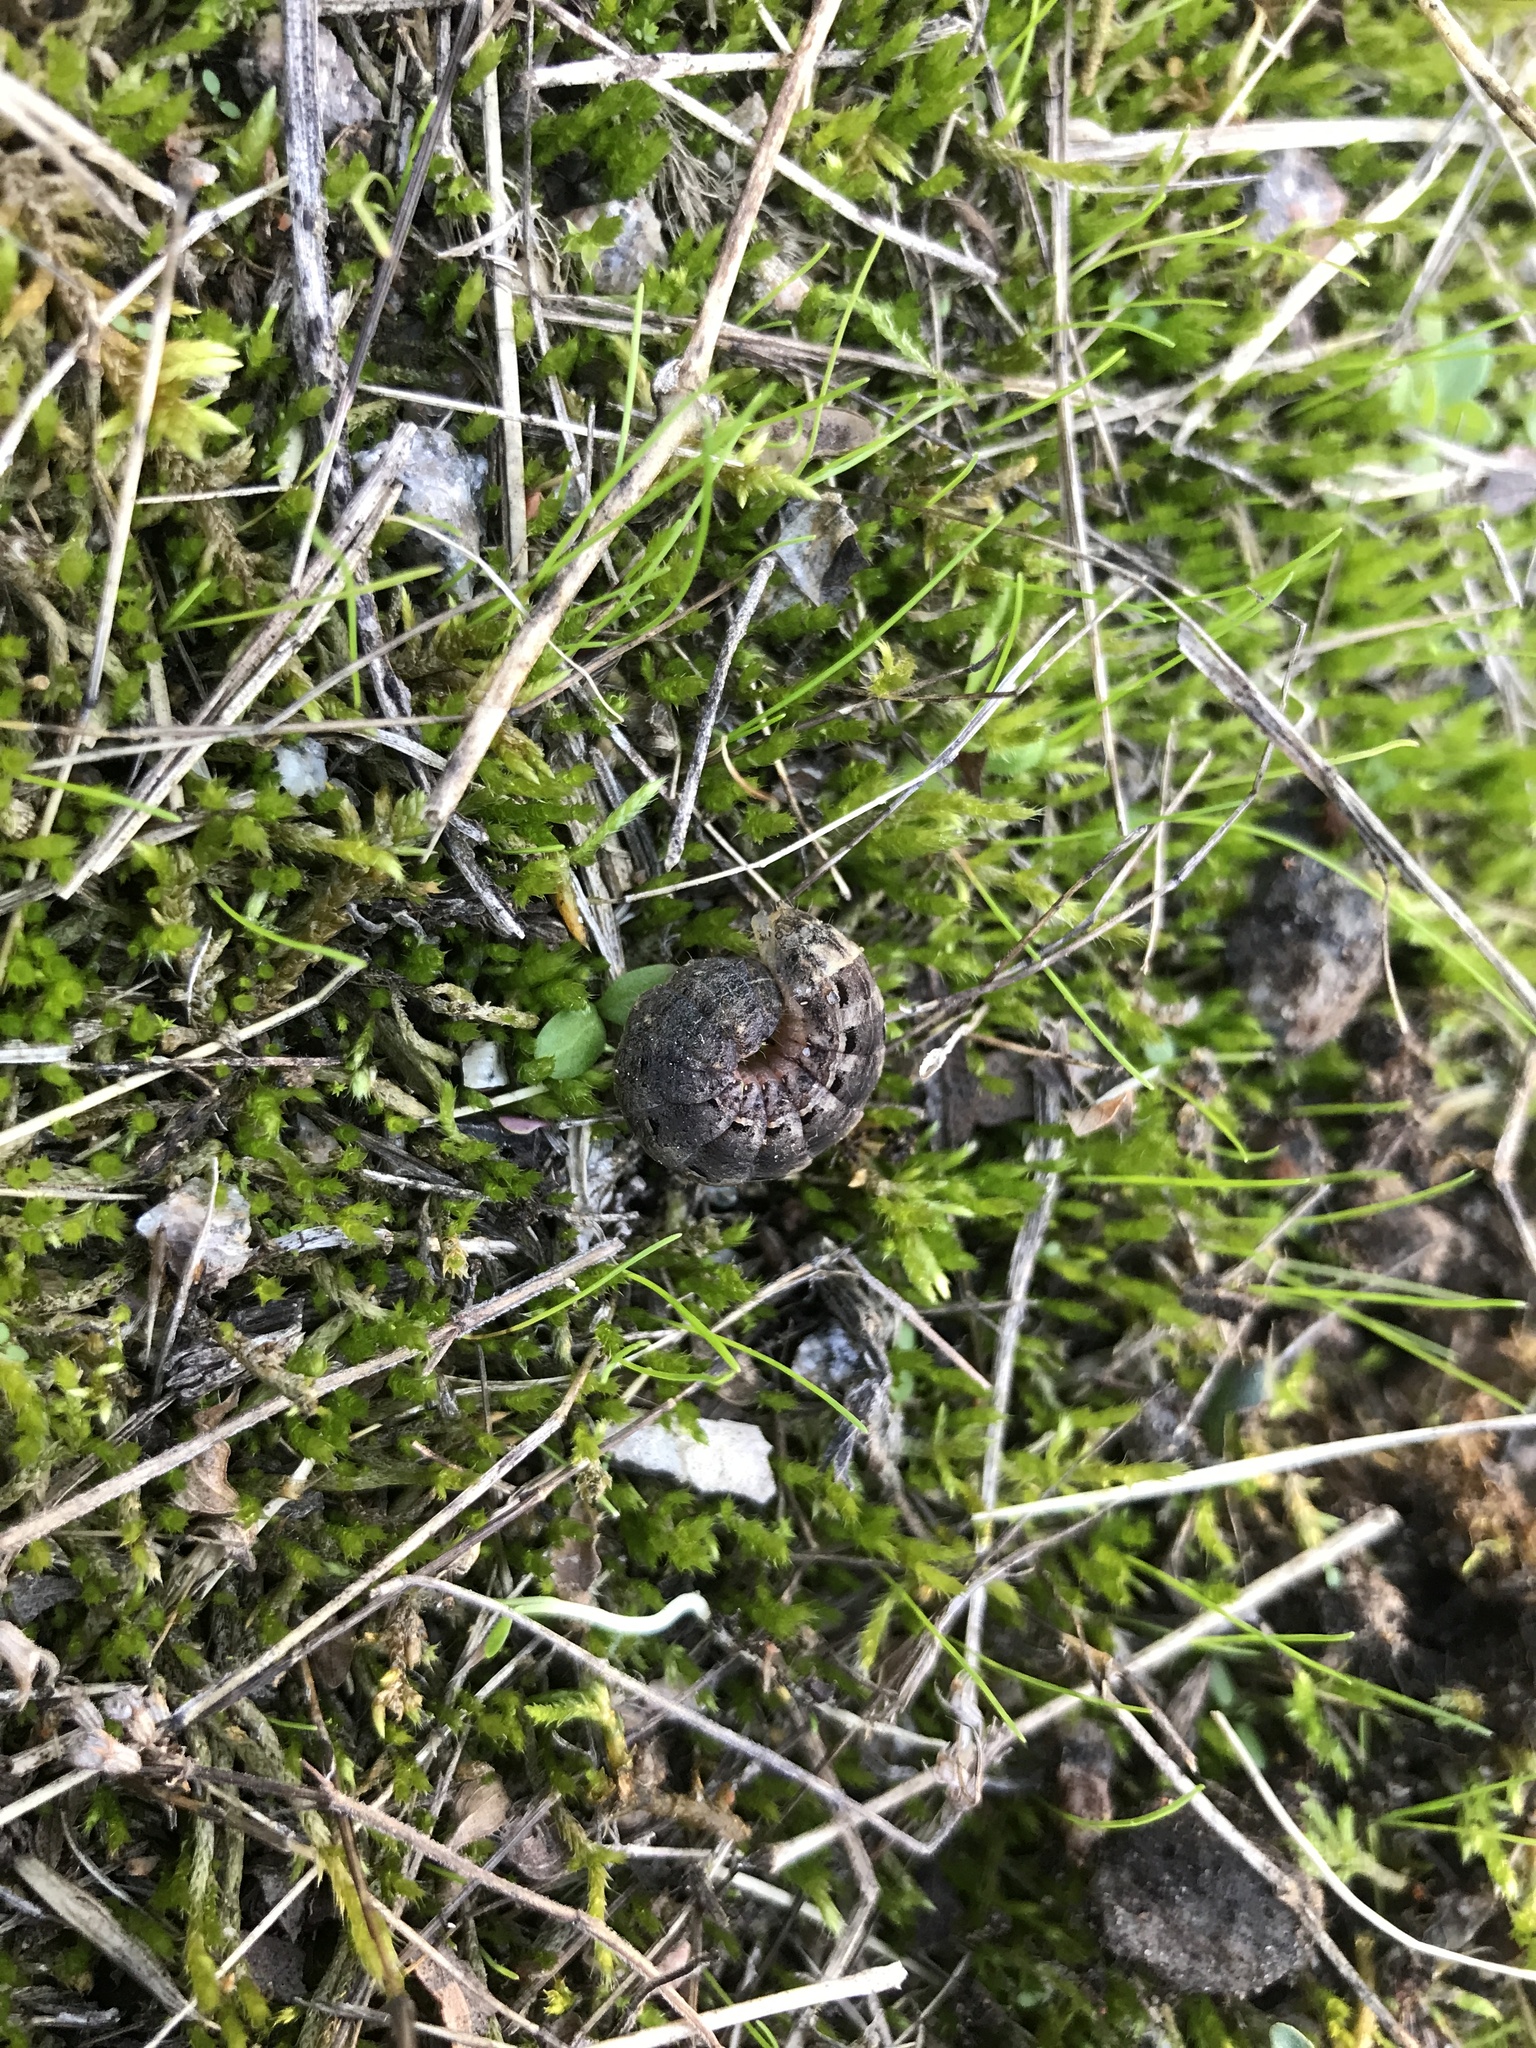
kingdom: Animalia
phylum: Arthropoda
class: Insecta
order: Lepidoptera
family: Noctuidae
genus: Noctua
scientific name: Noctua pronuba
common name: Large yellow underwing
